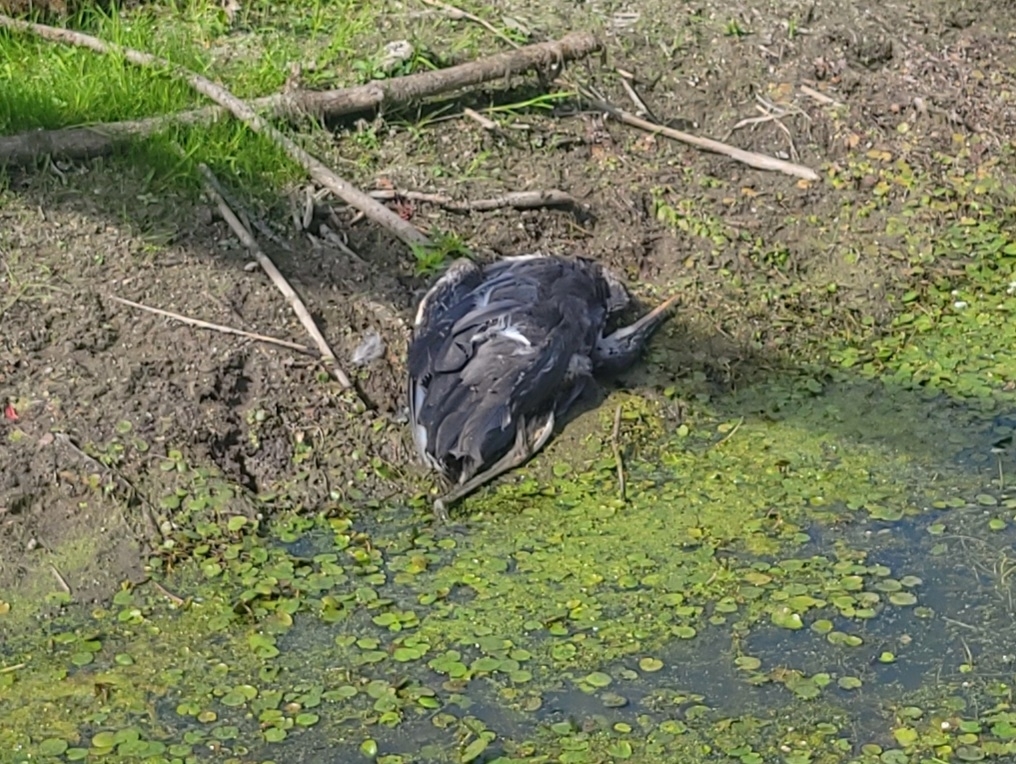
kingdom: Animalia
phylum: Chordata
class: Aves
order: Pelecaniformes
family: Ardeidae
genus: Ardea
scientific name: Ardea herodias
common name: Great blue heron
